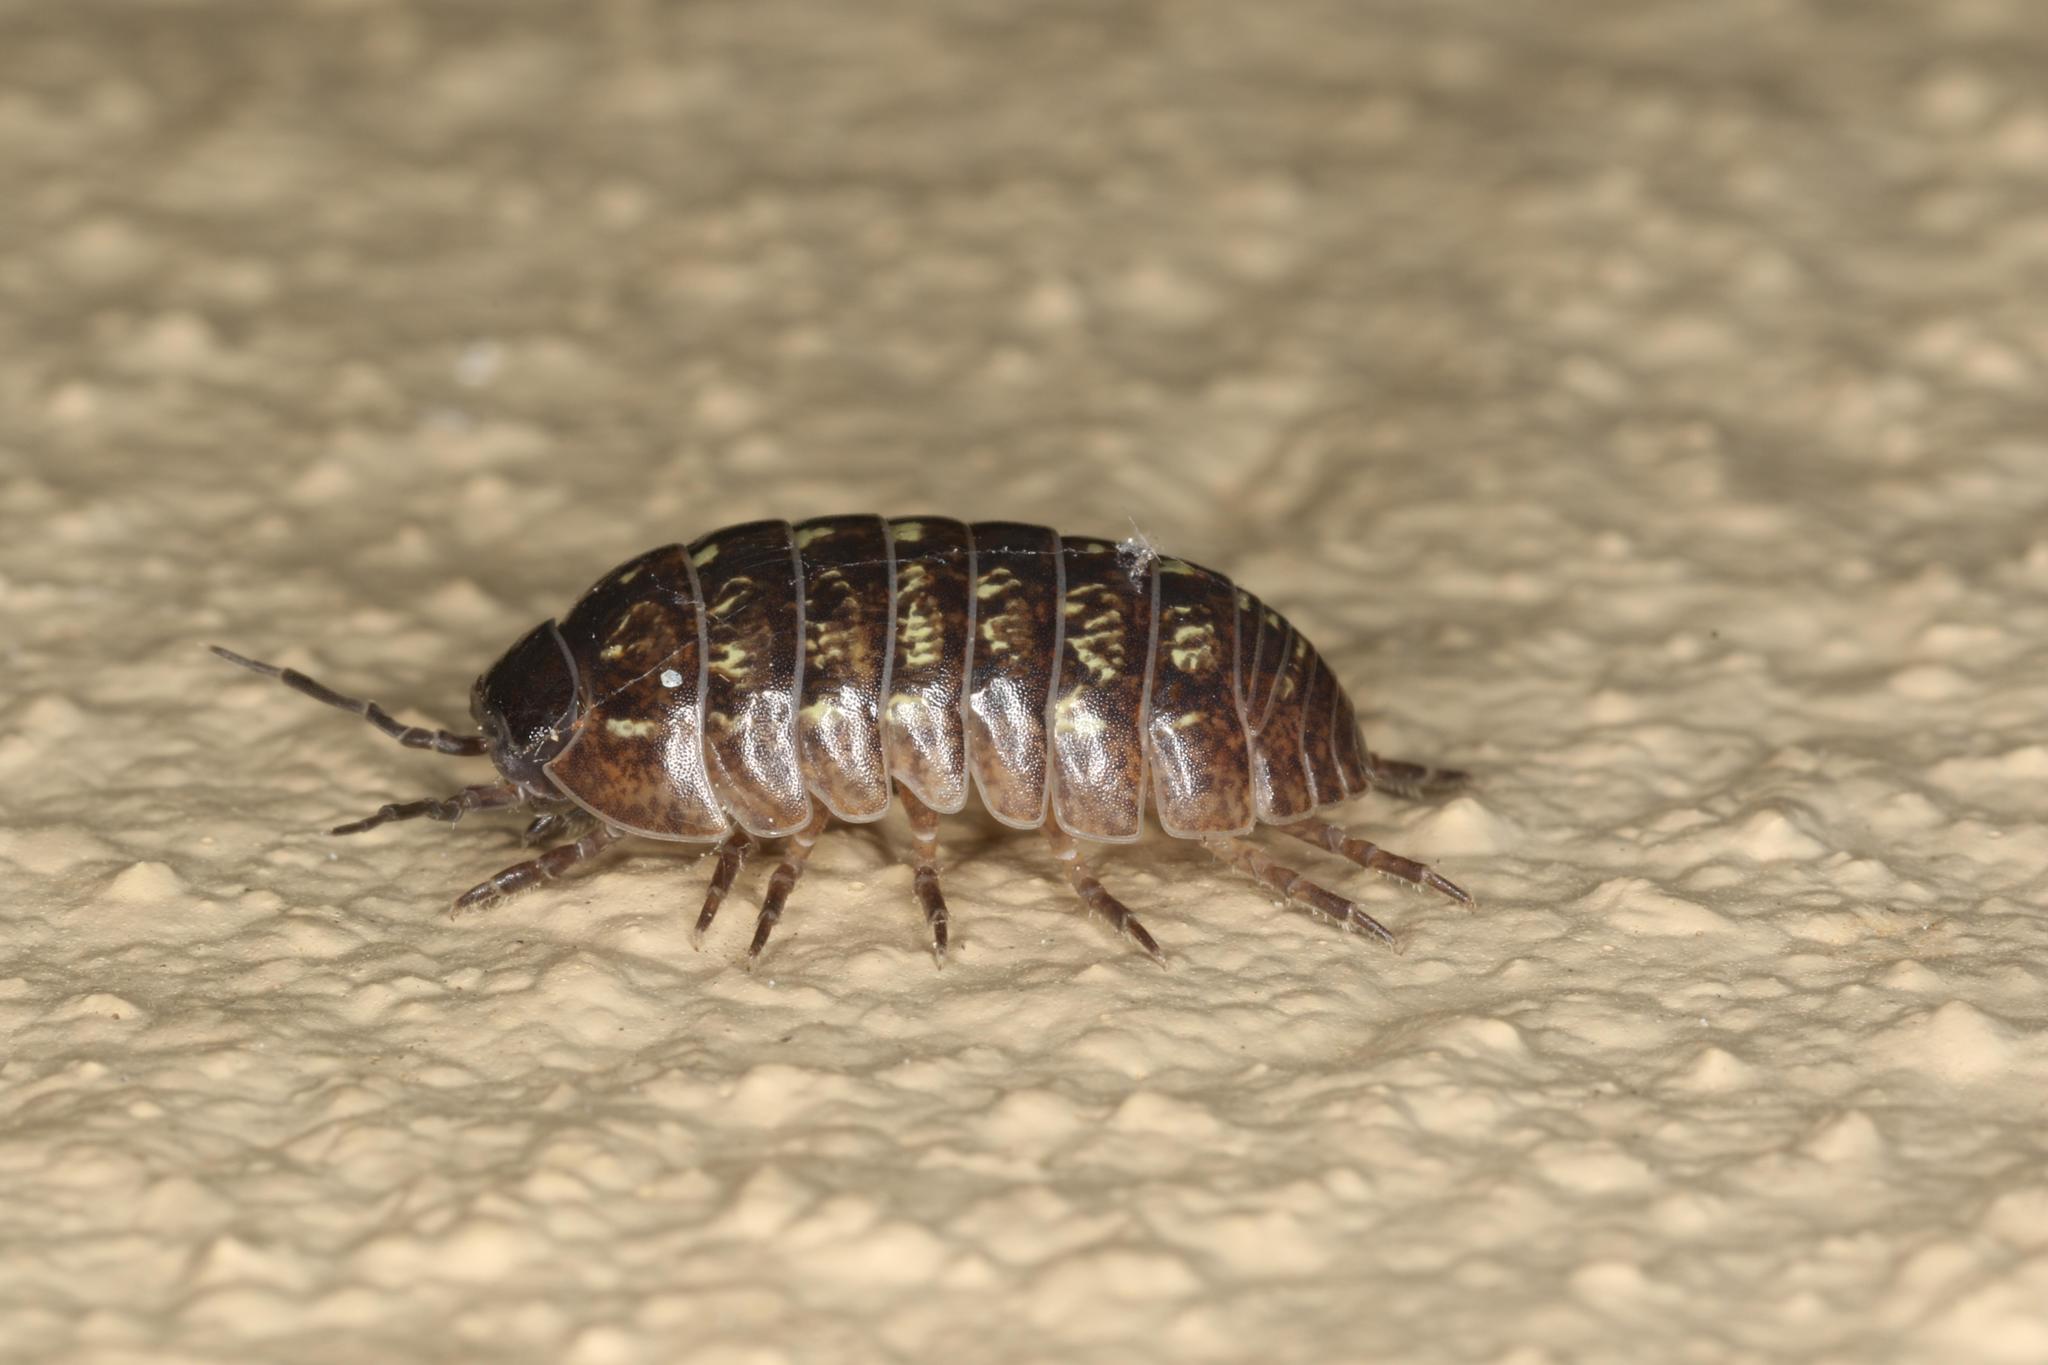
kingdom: Animalia
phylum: Arthropoda
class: Malacostraca
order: Isopoda
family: Armadillidiidae
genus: Armadillidium
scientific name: Armadillidium vulgare
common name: Common pill woodlouse
